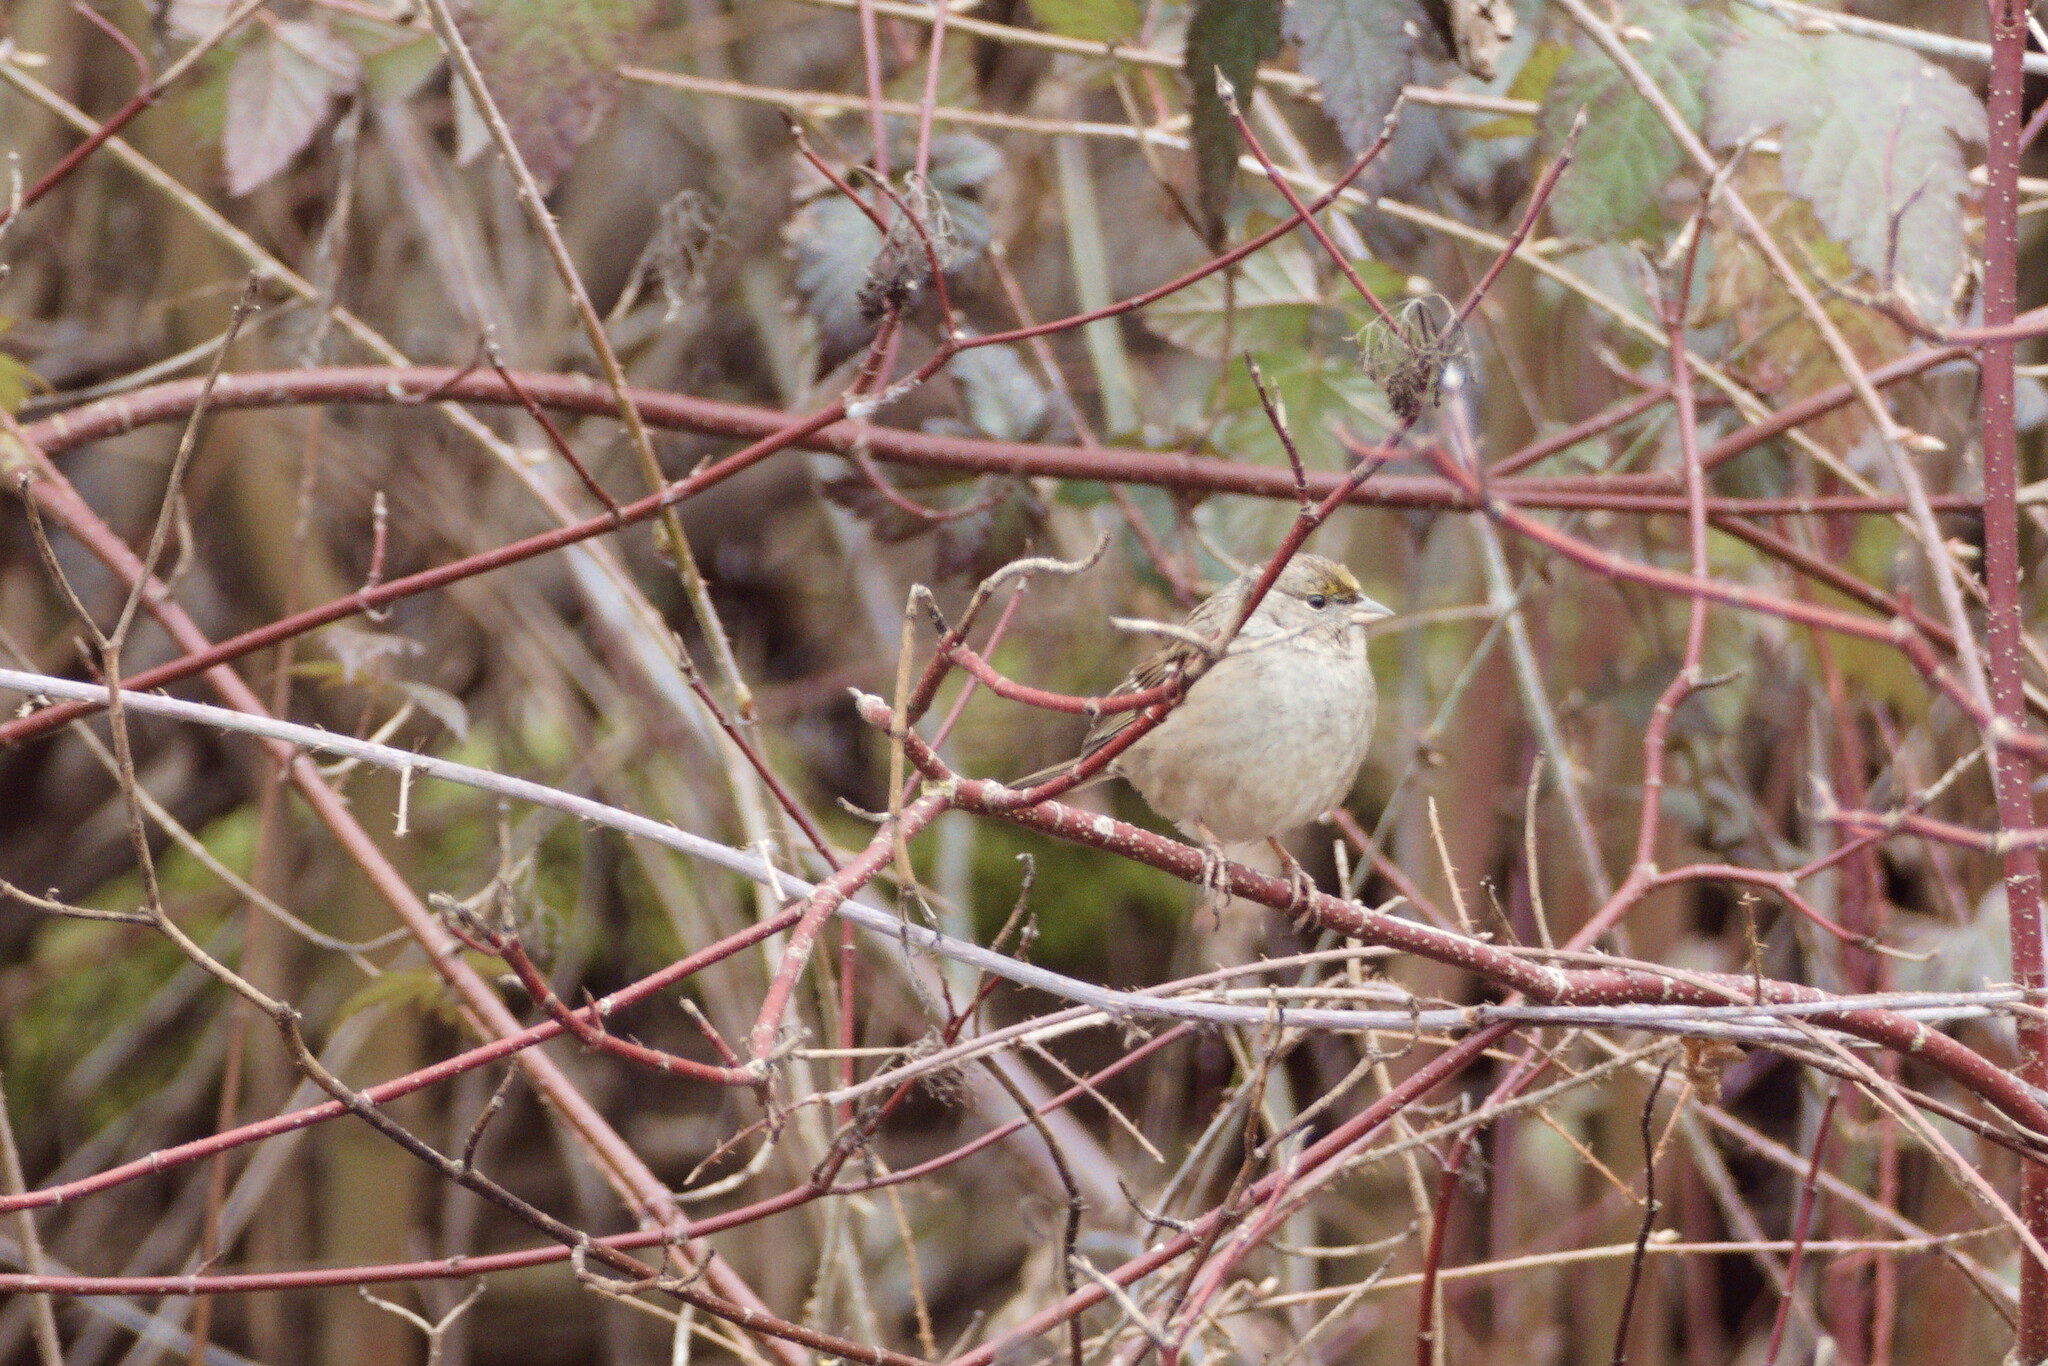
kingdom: Animalia
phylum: Chordata
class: Aves
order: Passeriformes
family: Passerellidae
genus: Zonotrichia
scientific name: Zonotrichia atricapilla
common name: Golden-crowned sparrow
